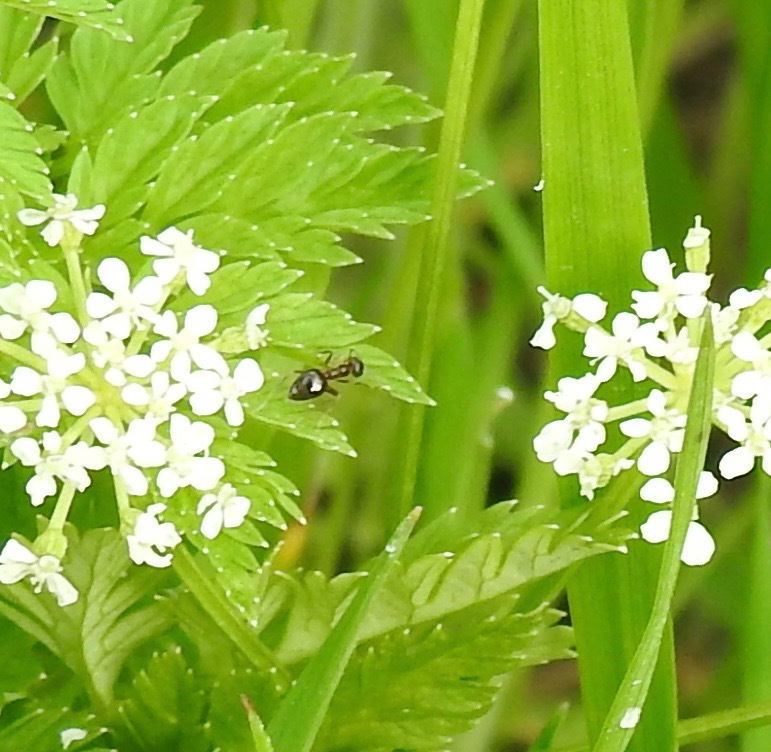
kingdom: Animalia
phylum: Arthropoda
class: Insecta
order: Hymenoptera
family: Formicidae
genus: Prenolepis
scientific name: Prenolepis imparis
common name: Small honey ant
